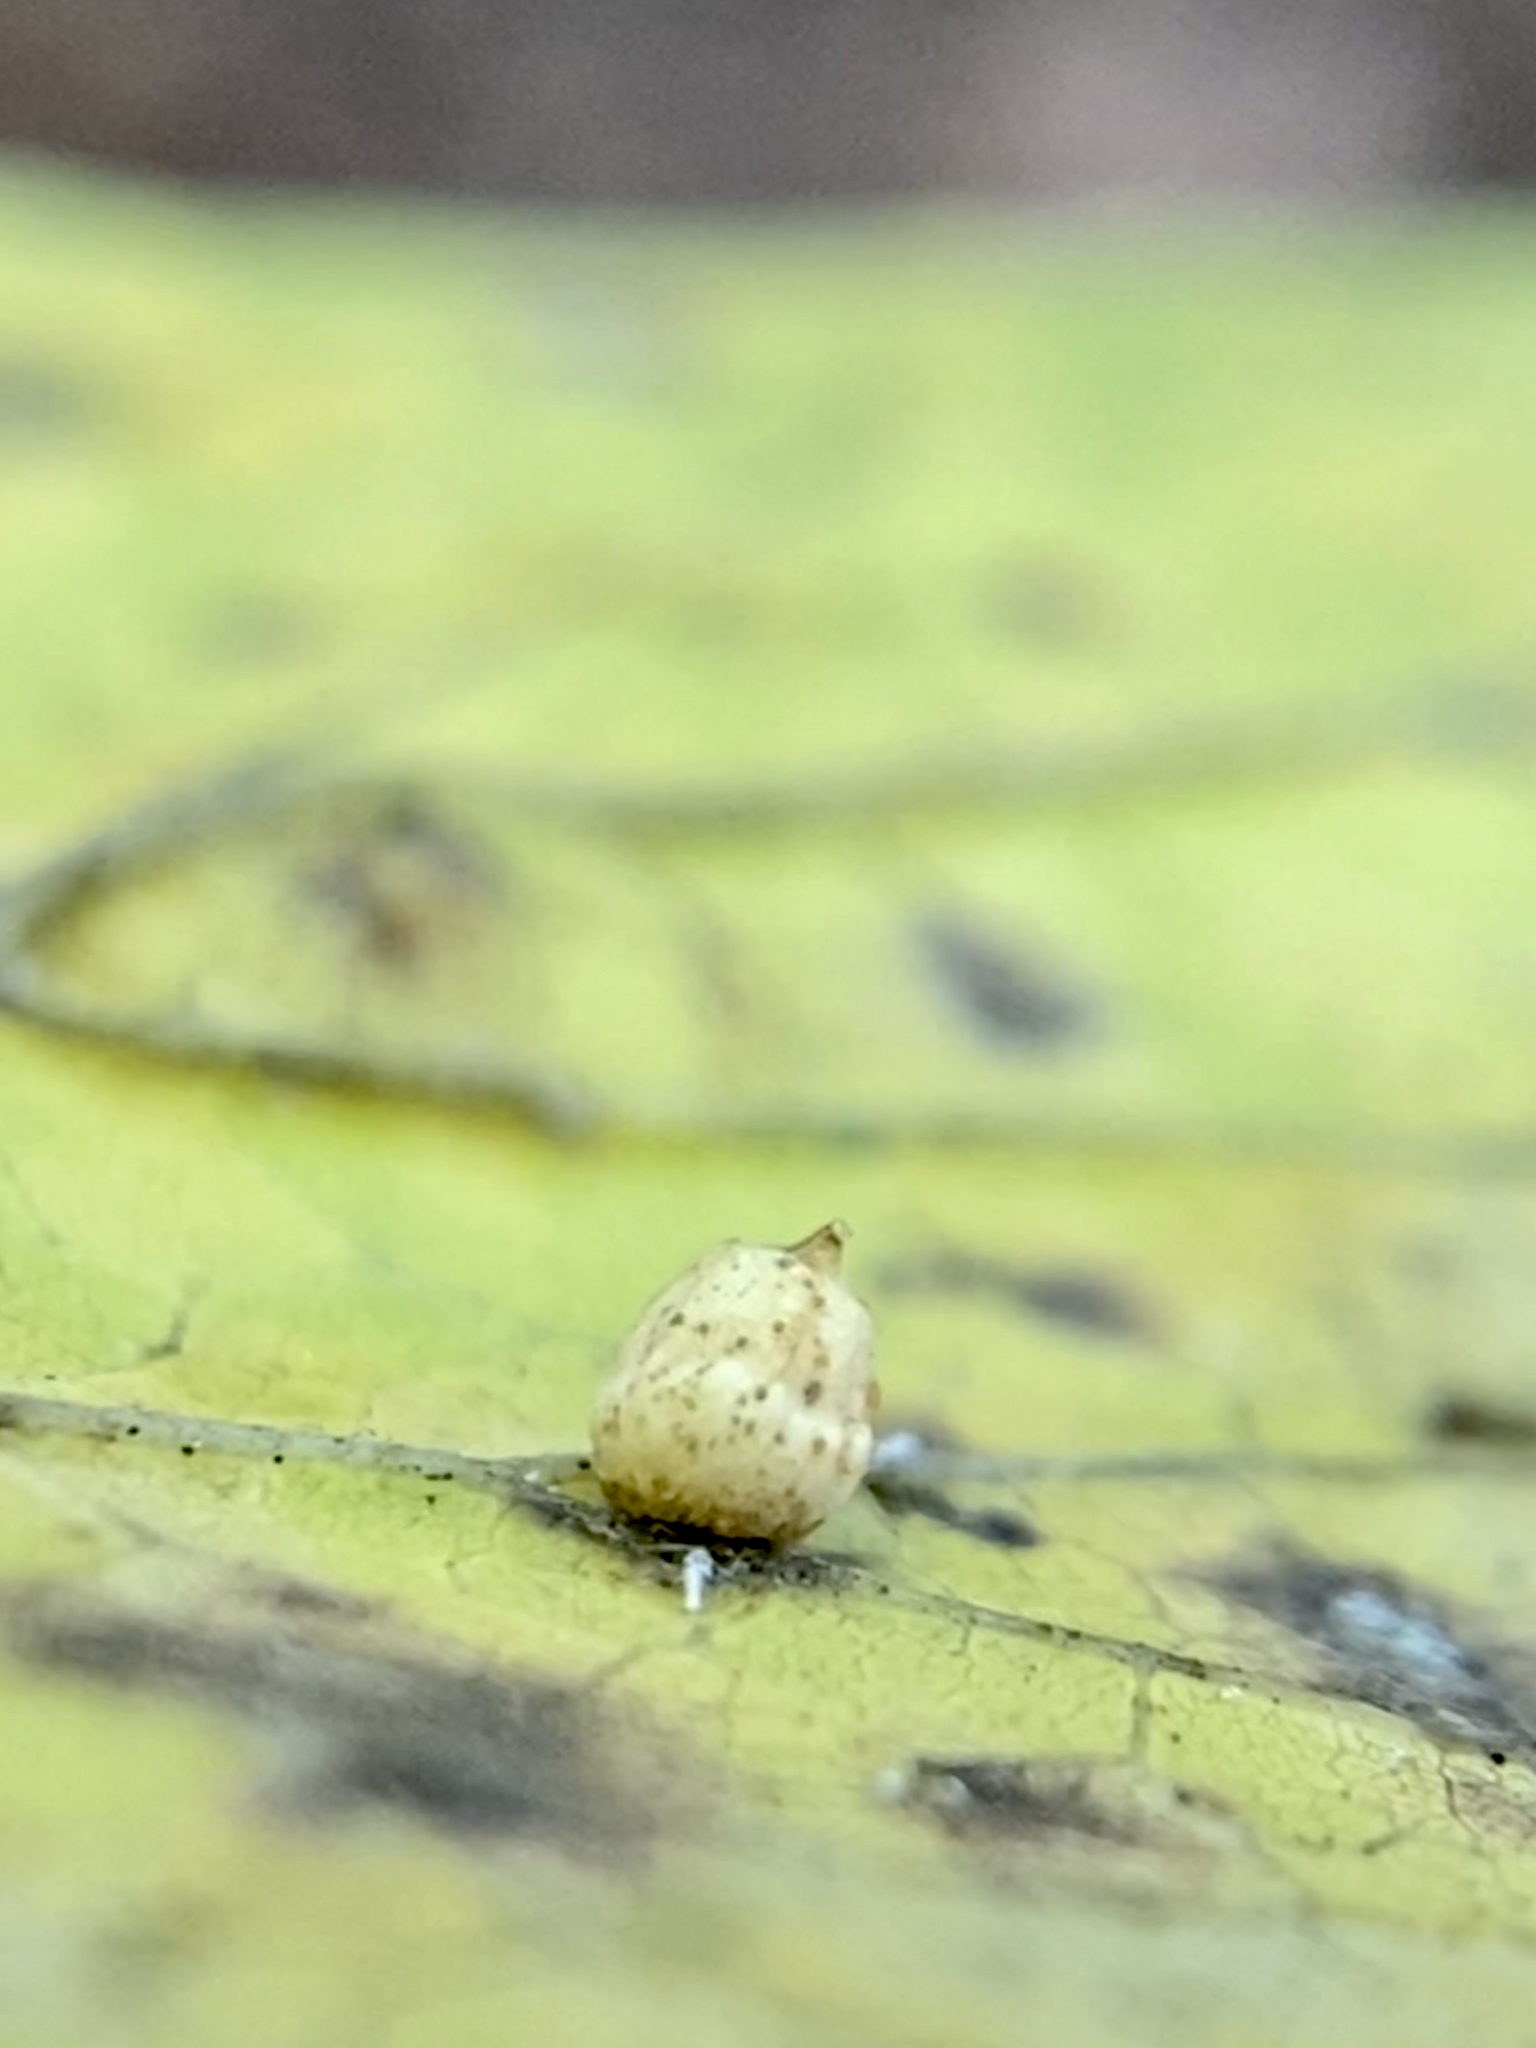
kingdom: Animalia
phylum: Arthropoda
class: Insecta
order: Diptera
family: Cecidomyiidae
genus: Celticecis
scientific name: Celticecis globosa
